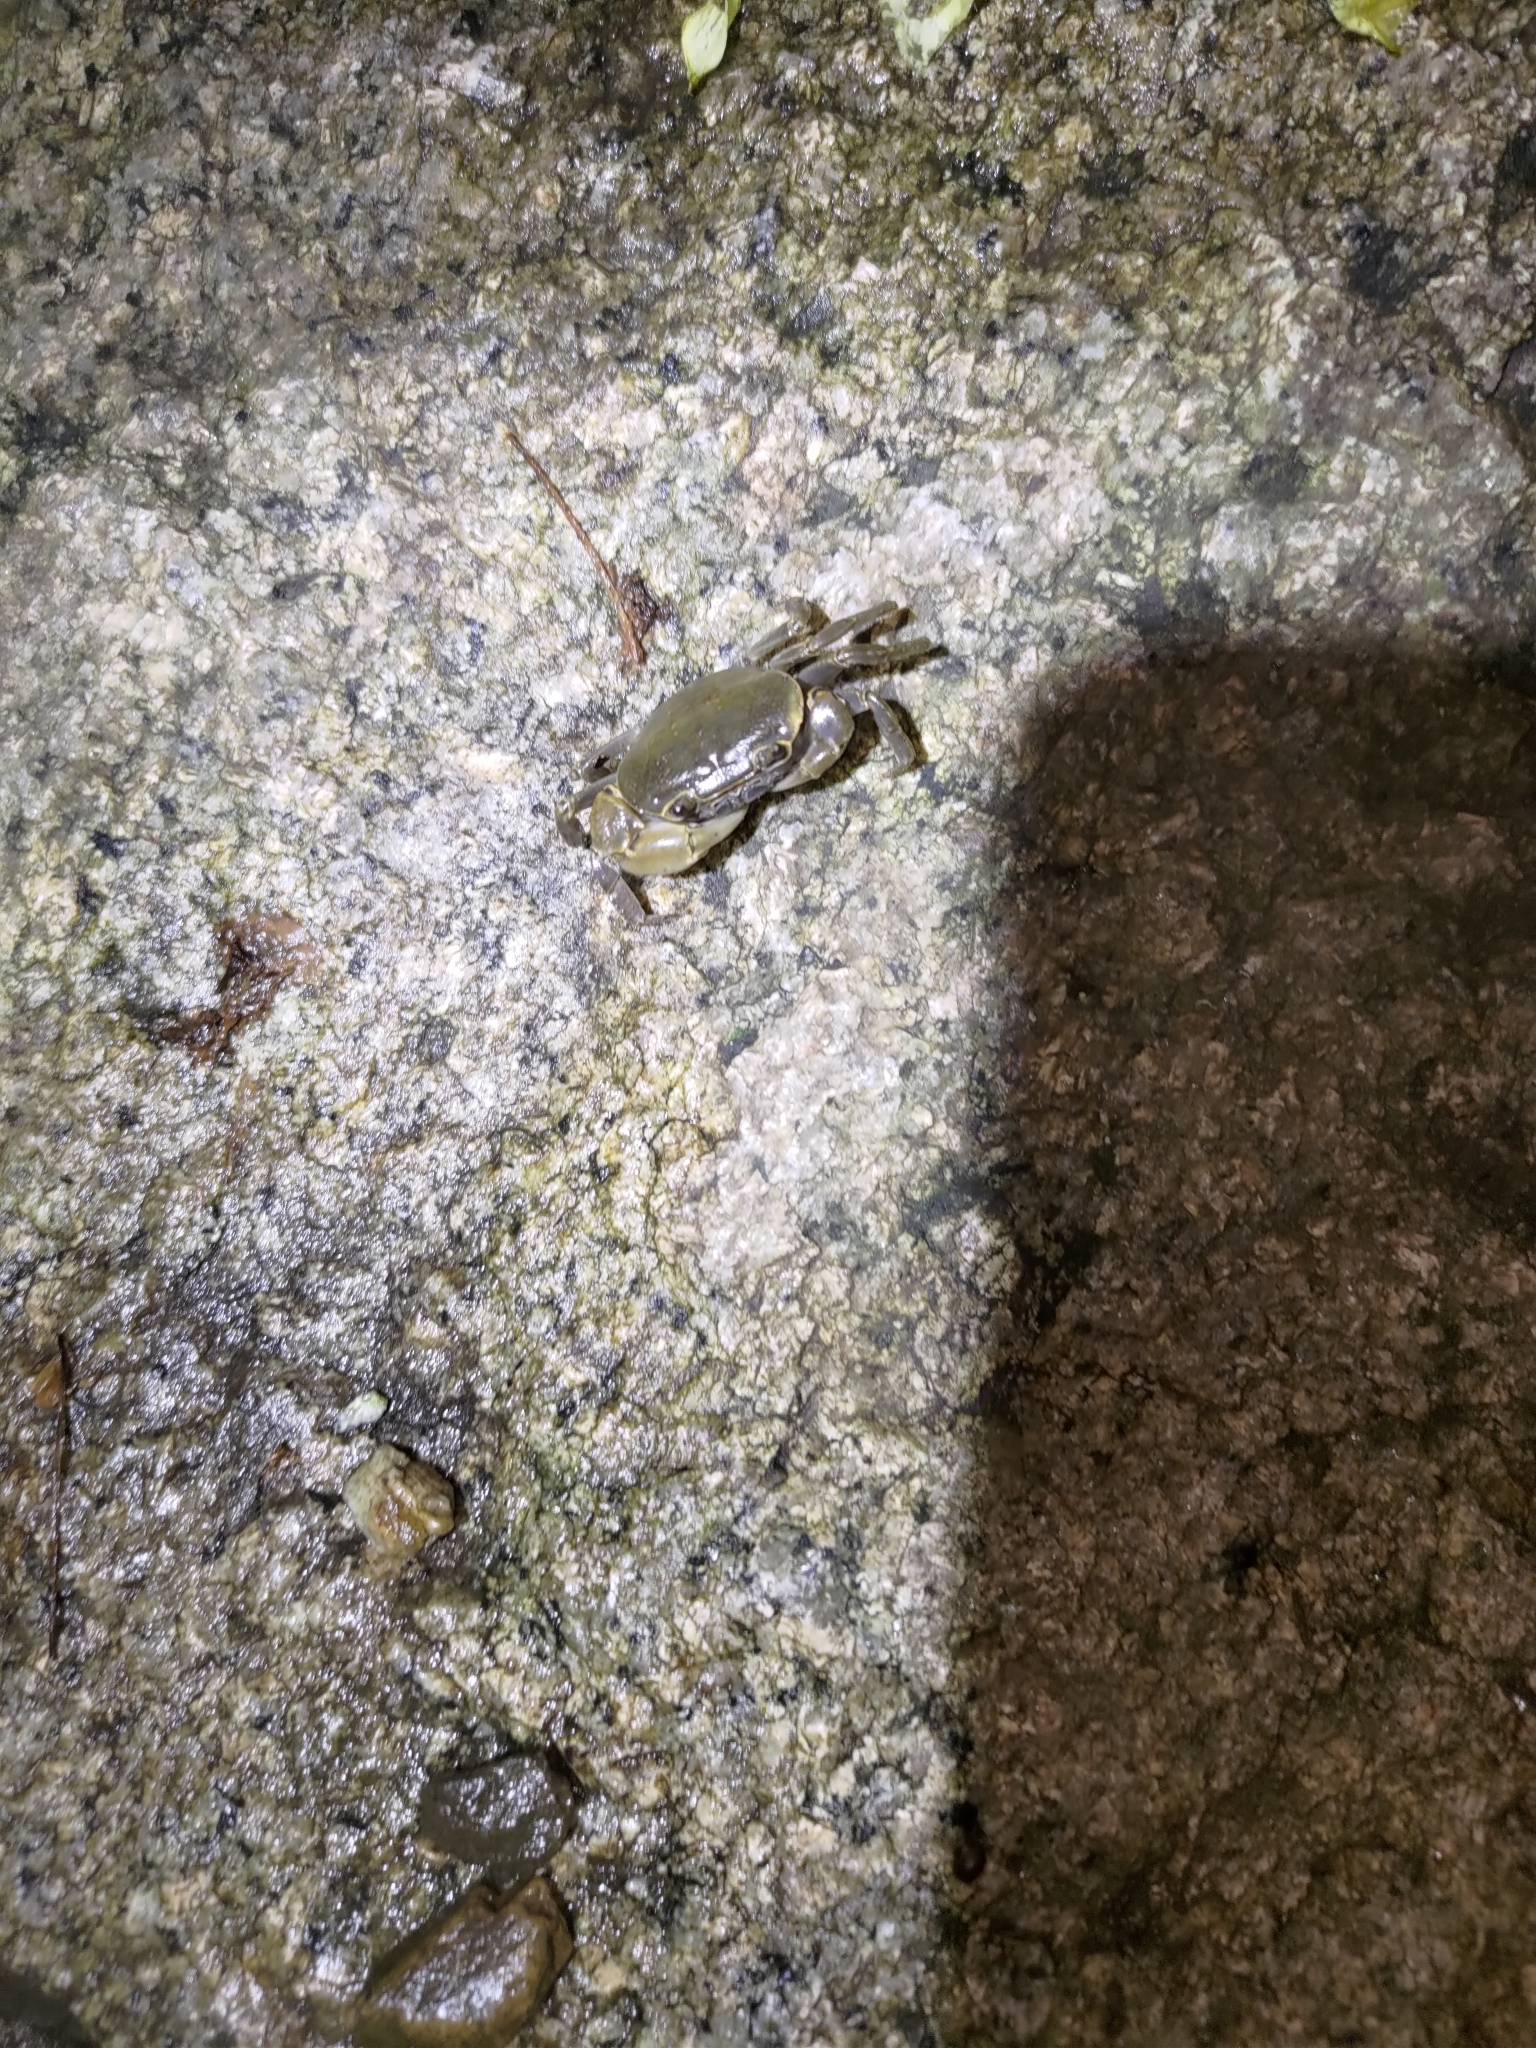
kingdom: Animalia
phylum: Arthropoda
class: Malacostraca
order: Decapoda
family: Potamidae
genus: Geothelphusa
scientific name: Geothelphusa olea
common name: Yellow-green crab
